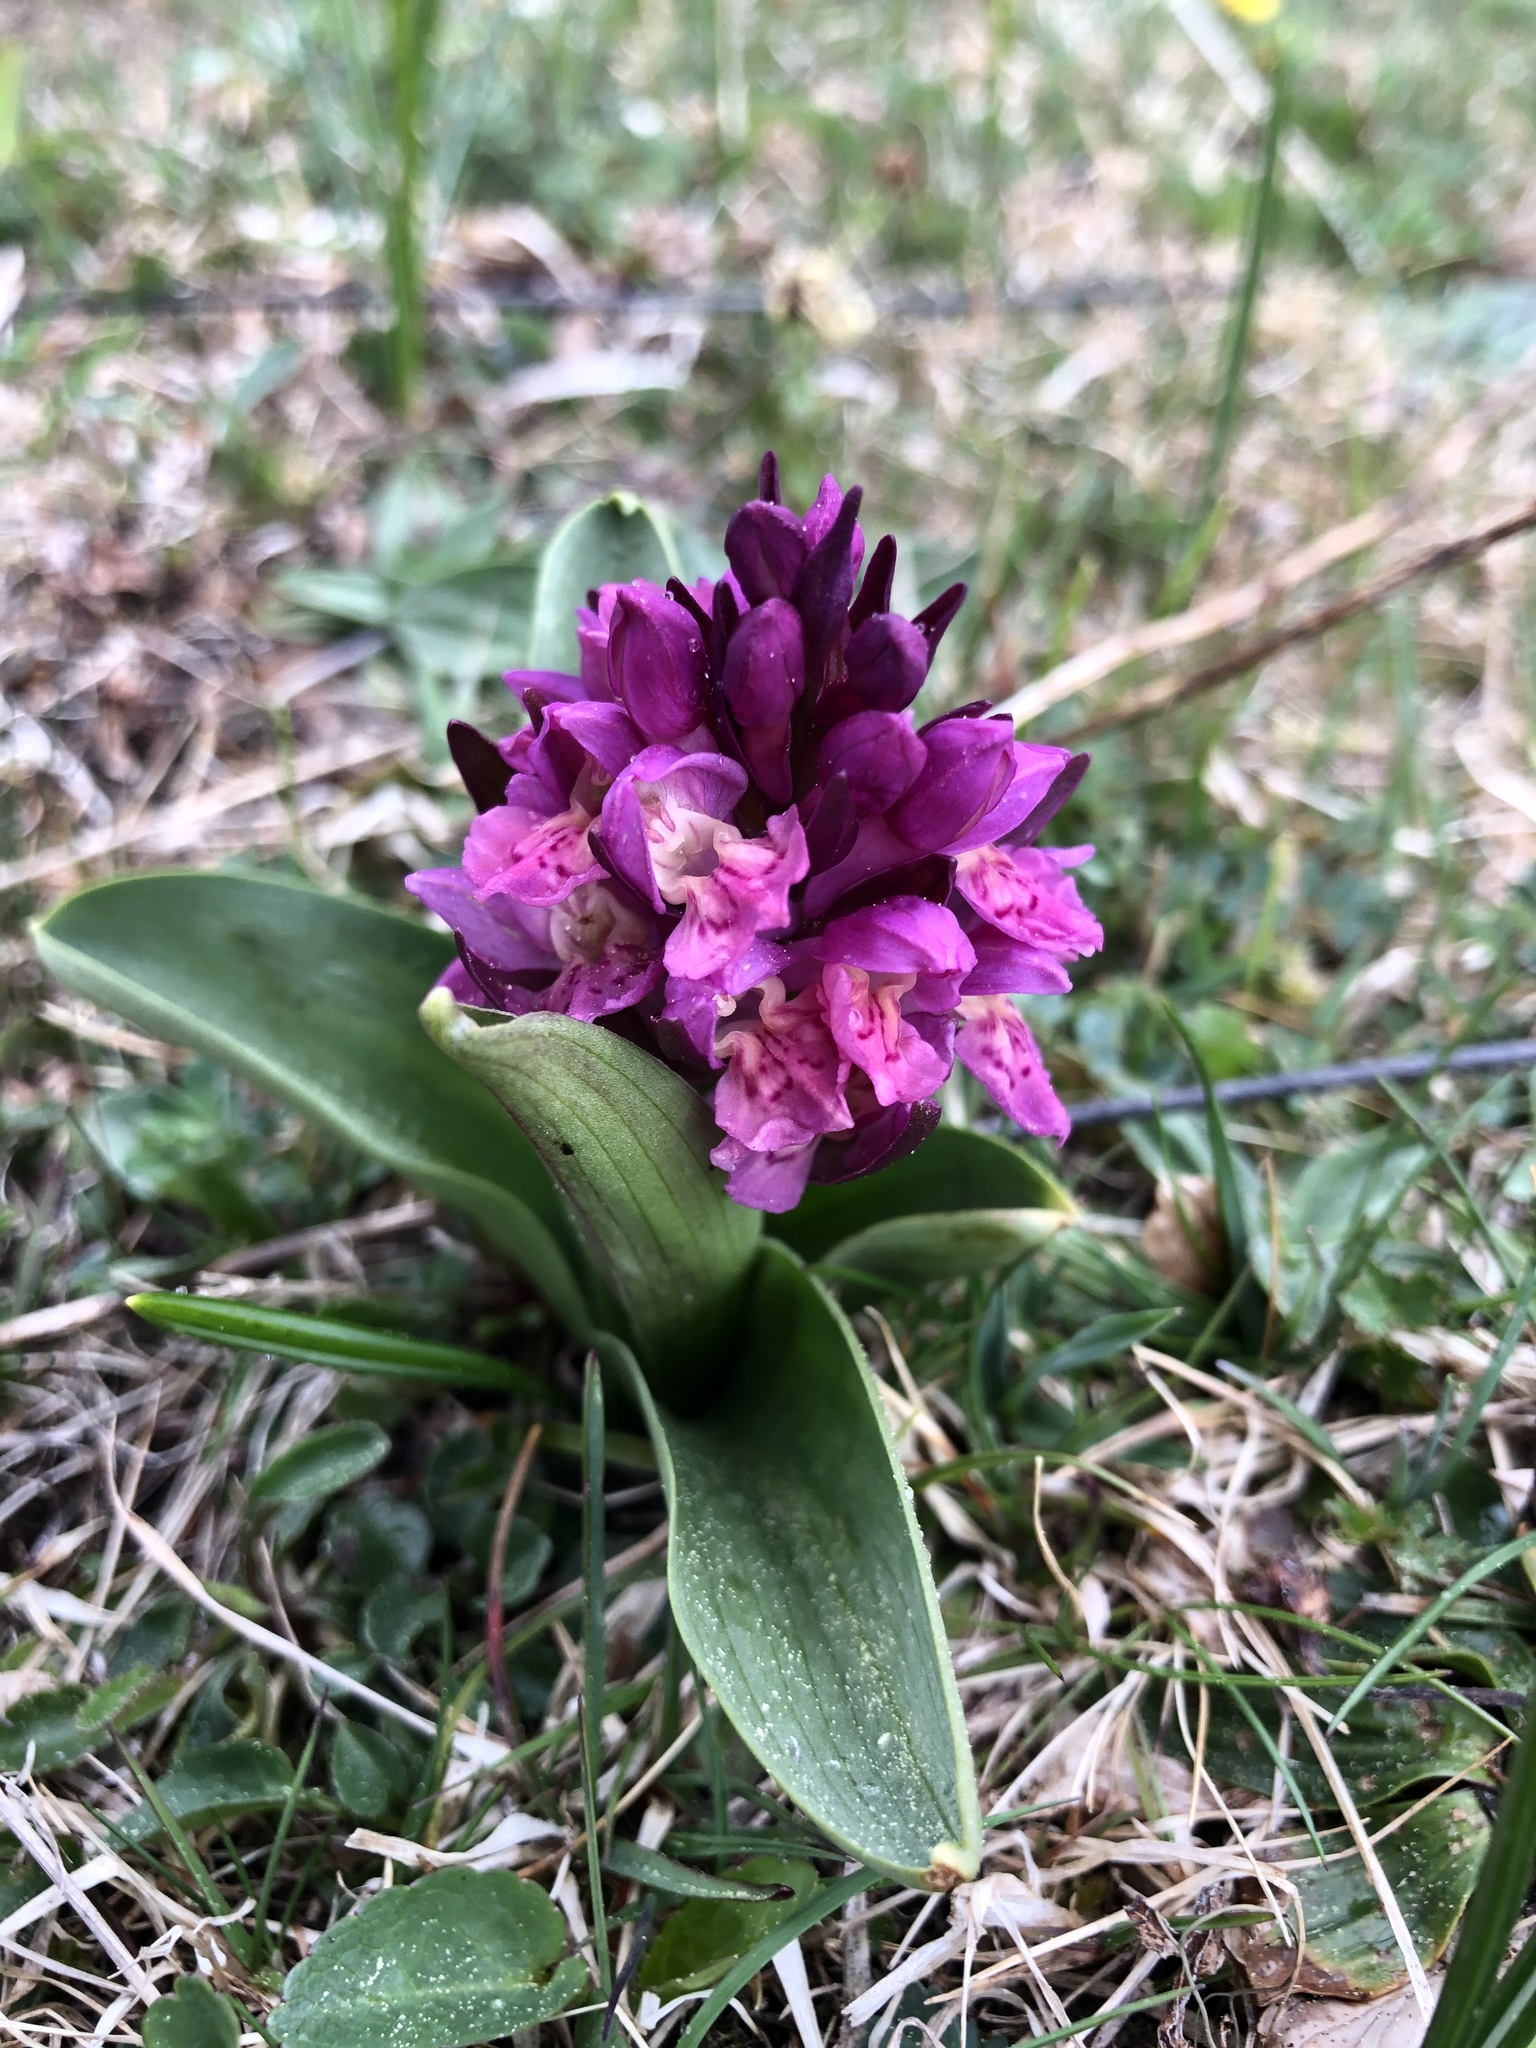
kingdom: Plantae
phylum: Tracheophyta
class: Liliopsida
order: Asparagales
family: Orchidaceae
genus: Dactylorhiza
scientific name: Dactylorhiza sambucina
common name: Elder-flowered orchid
